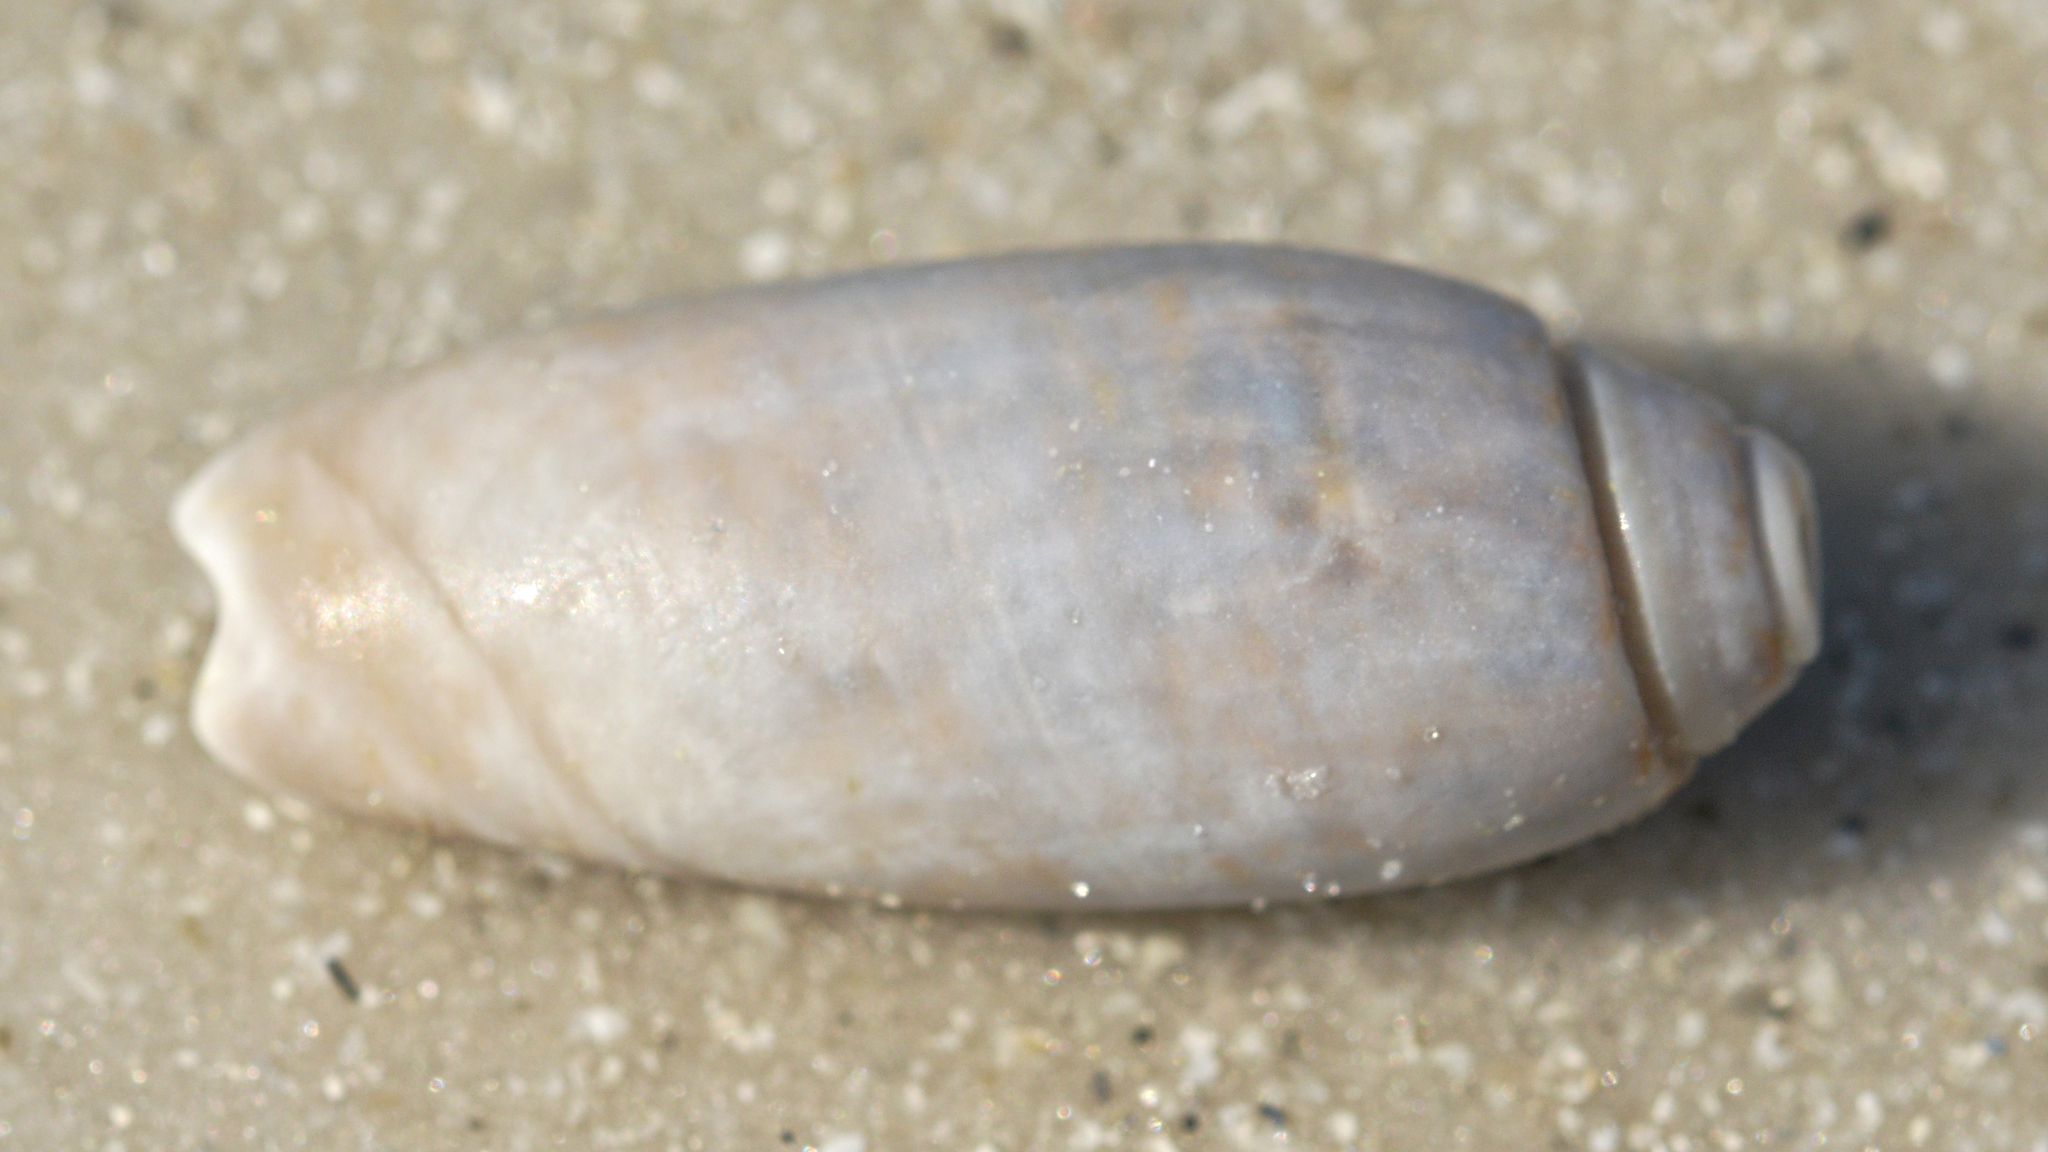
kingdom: Animalia
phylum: Mollusca
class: Gastropoda
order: Neogastropoda
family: Olividae
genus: Oliva
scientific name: Oliva sayana
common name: Lettered olive
